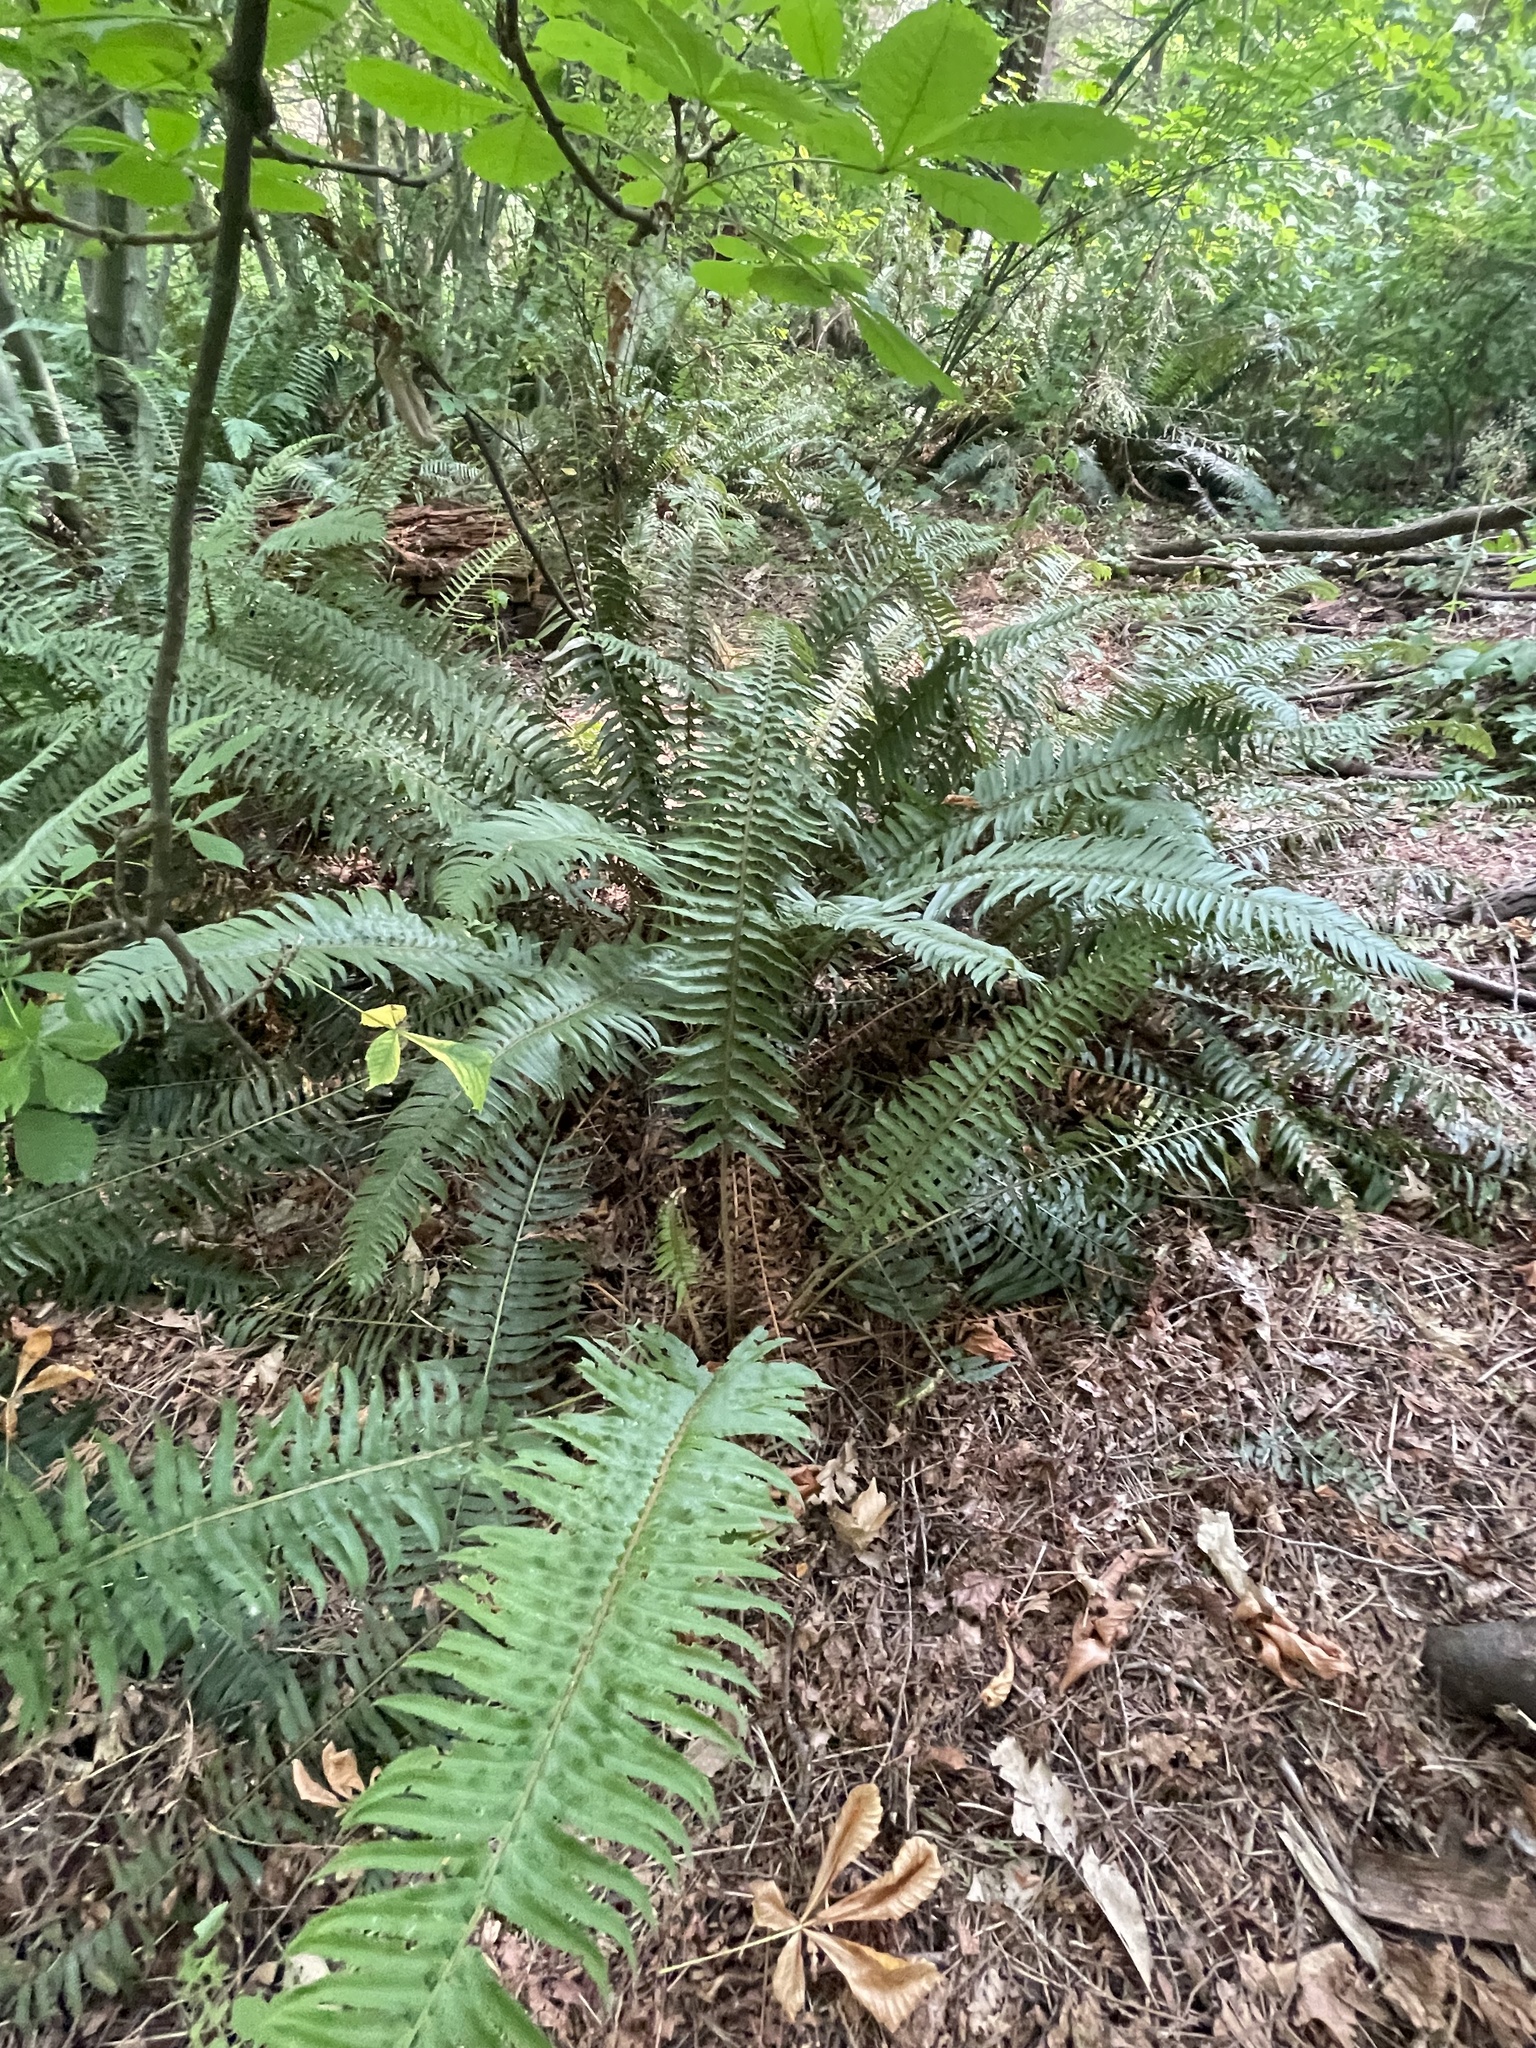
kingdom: Plantae
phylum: Tracheophyta
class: Polypodiopsida
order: Polypodiales
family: Dryopteridaceae
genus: Polystichum
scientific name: Polystichum munitum
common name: Western sword-fern
